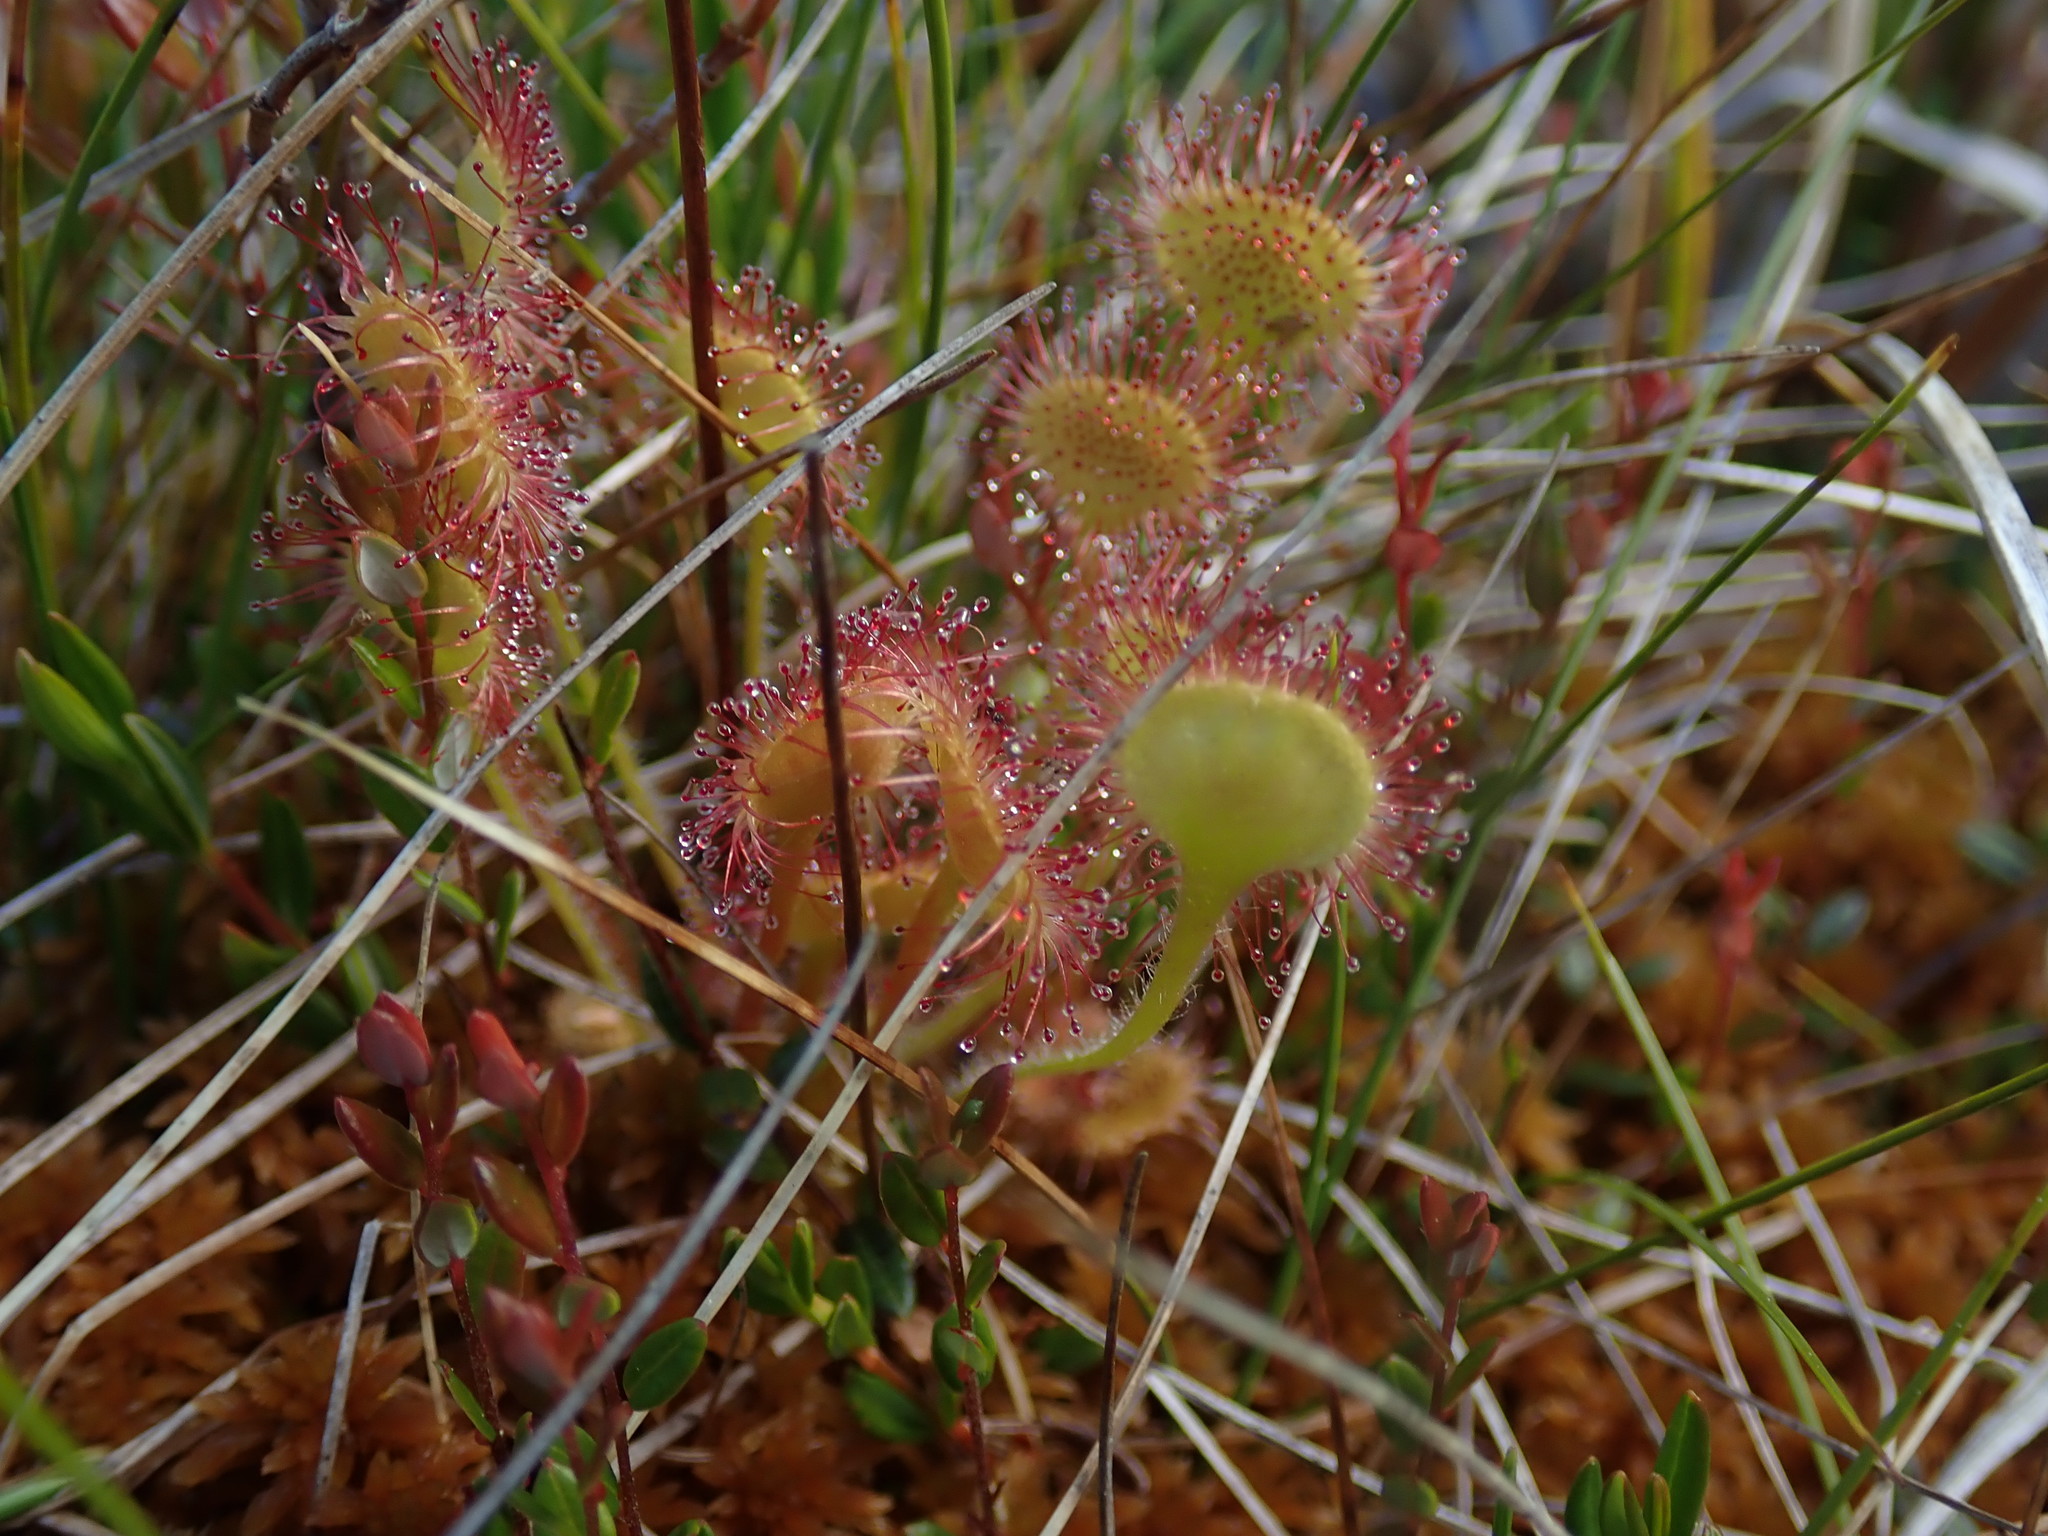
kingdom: Plantae
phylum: Tracheophyta
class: Magnoliopsida
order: Caryophyllales
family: Droseraceae
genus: Drosera
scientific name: Drosera rotundifolia
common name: Round-leaved sundew
